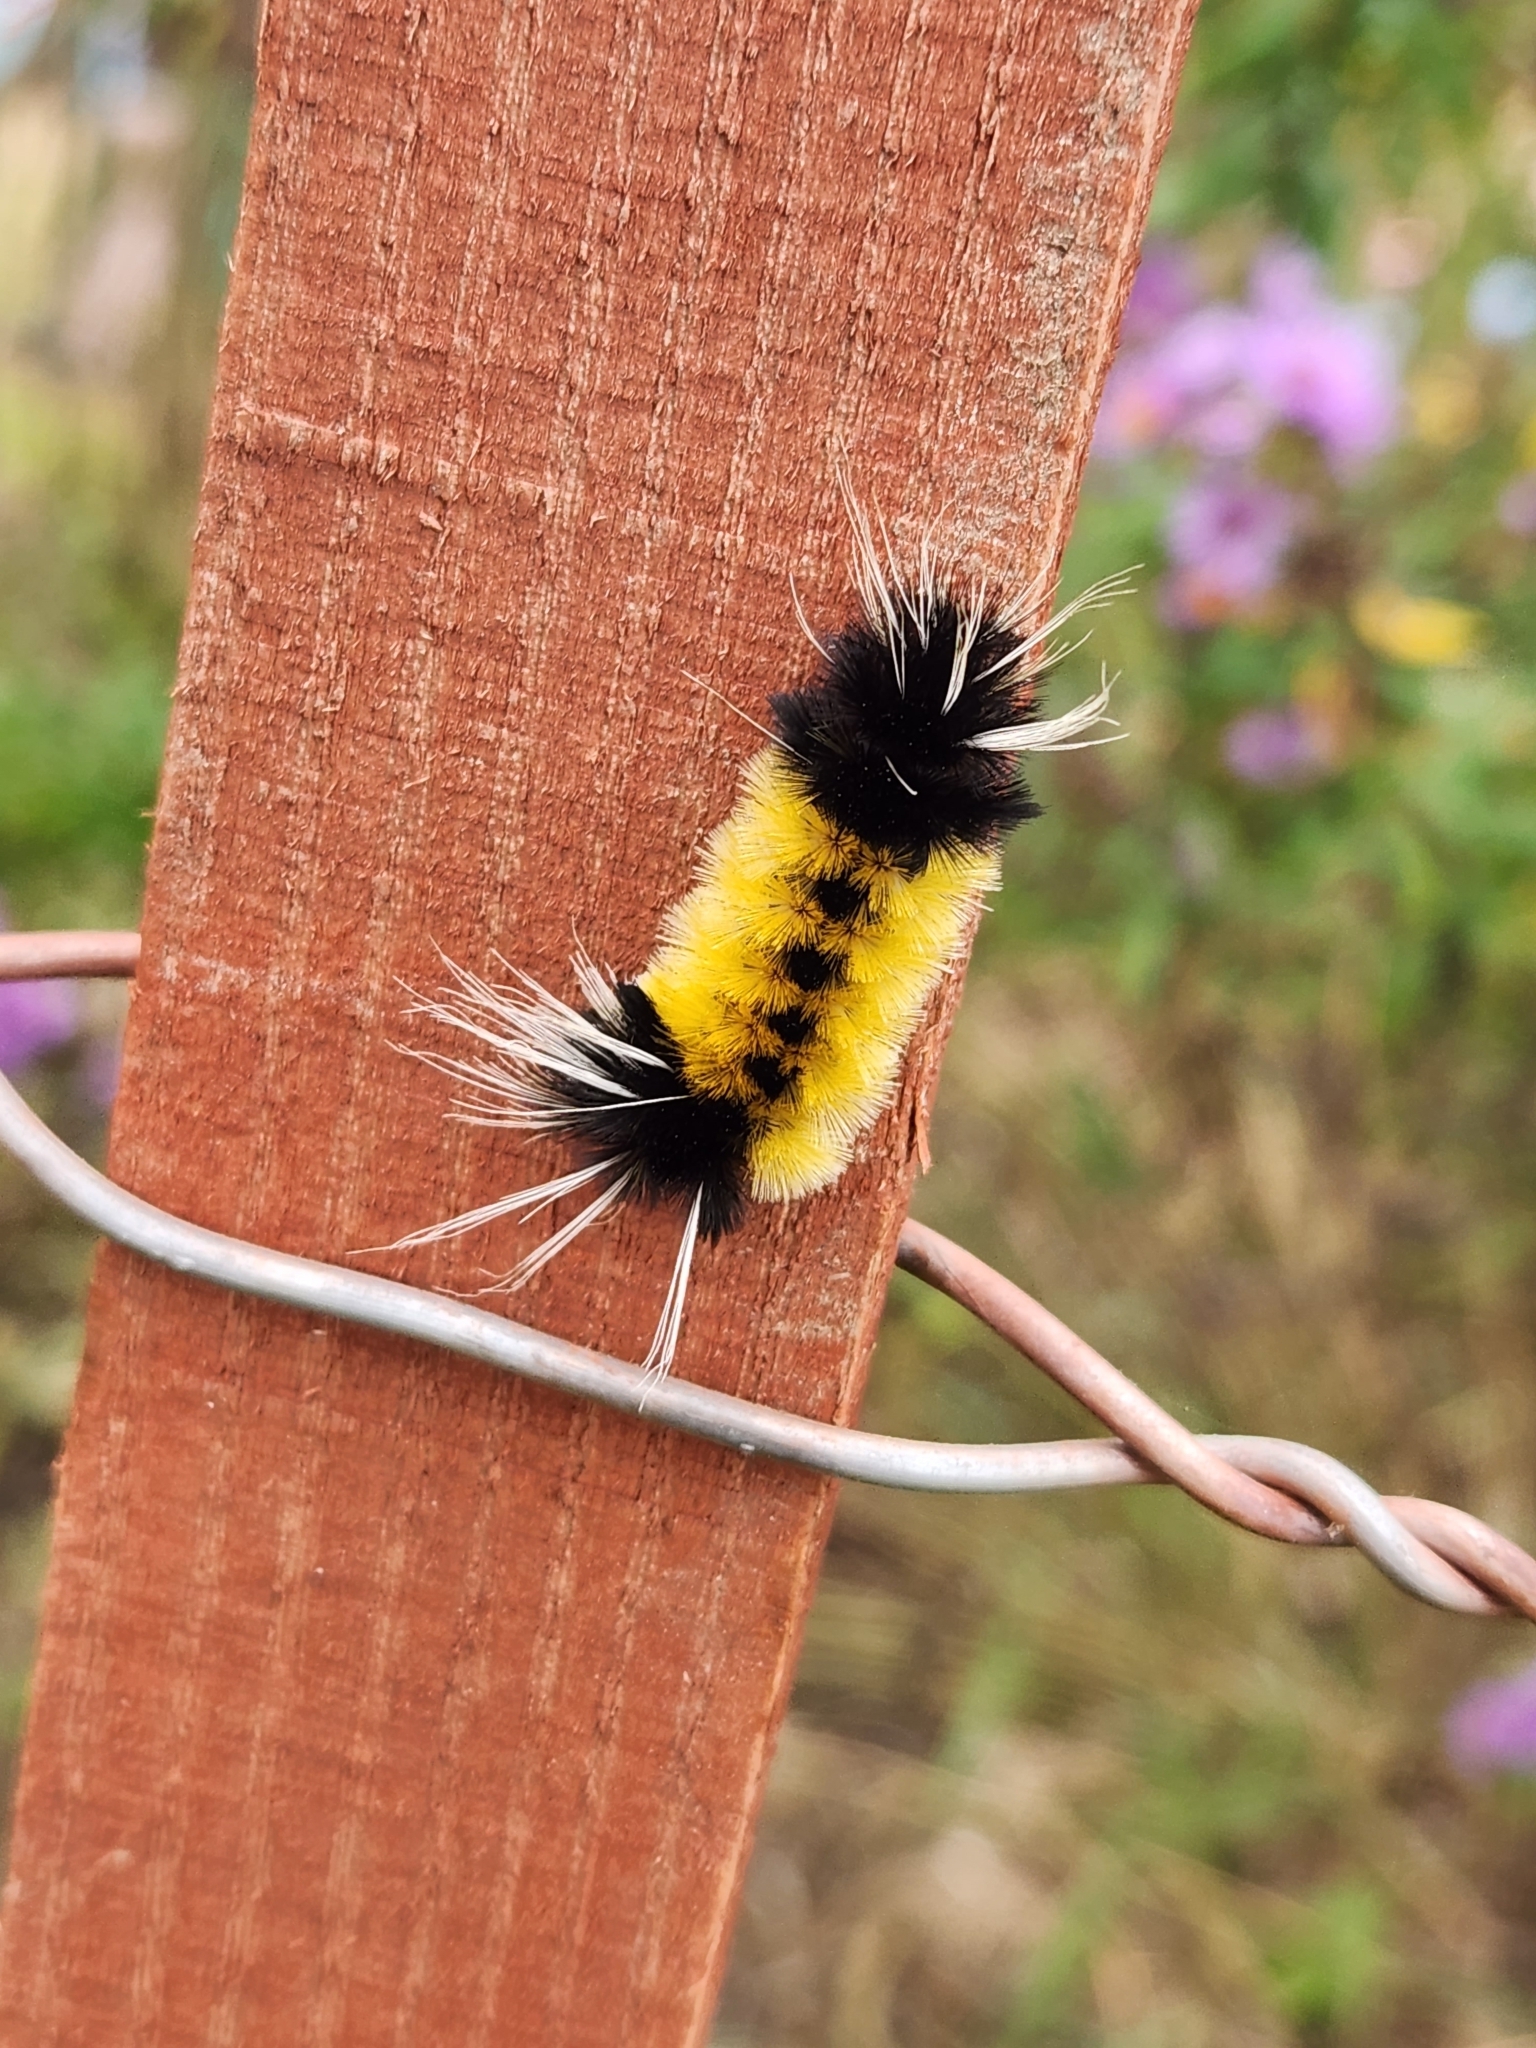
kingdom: Animalia
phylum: Arthropoda
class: Insecta
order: Lepidoptera
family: Erebidae
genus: Lophocampa
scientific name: Lophocampa maculata
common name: Spotted tussock moth
